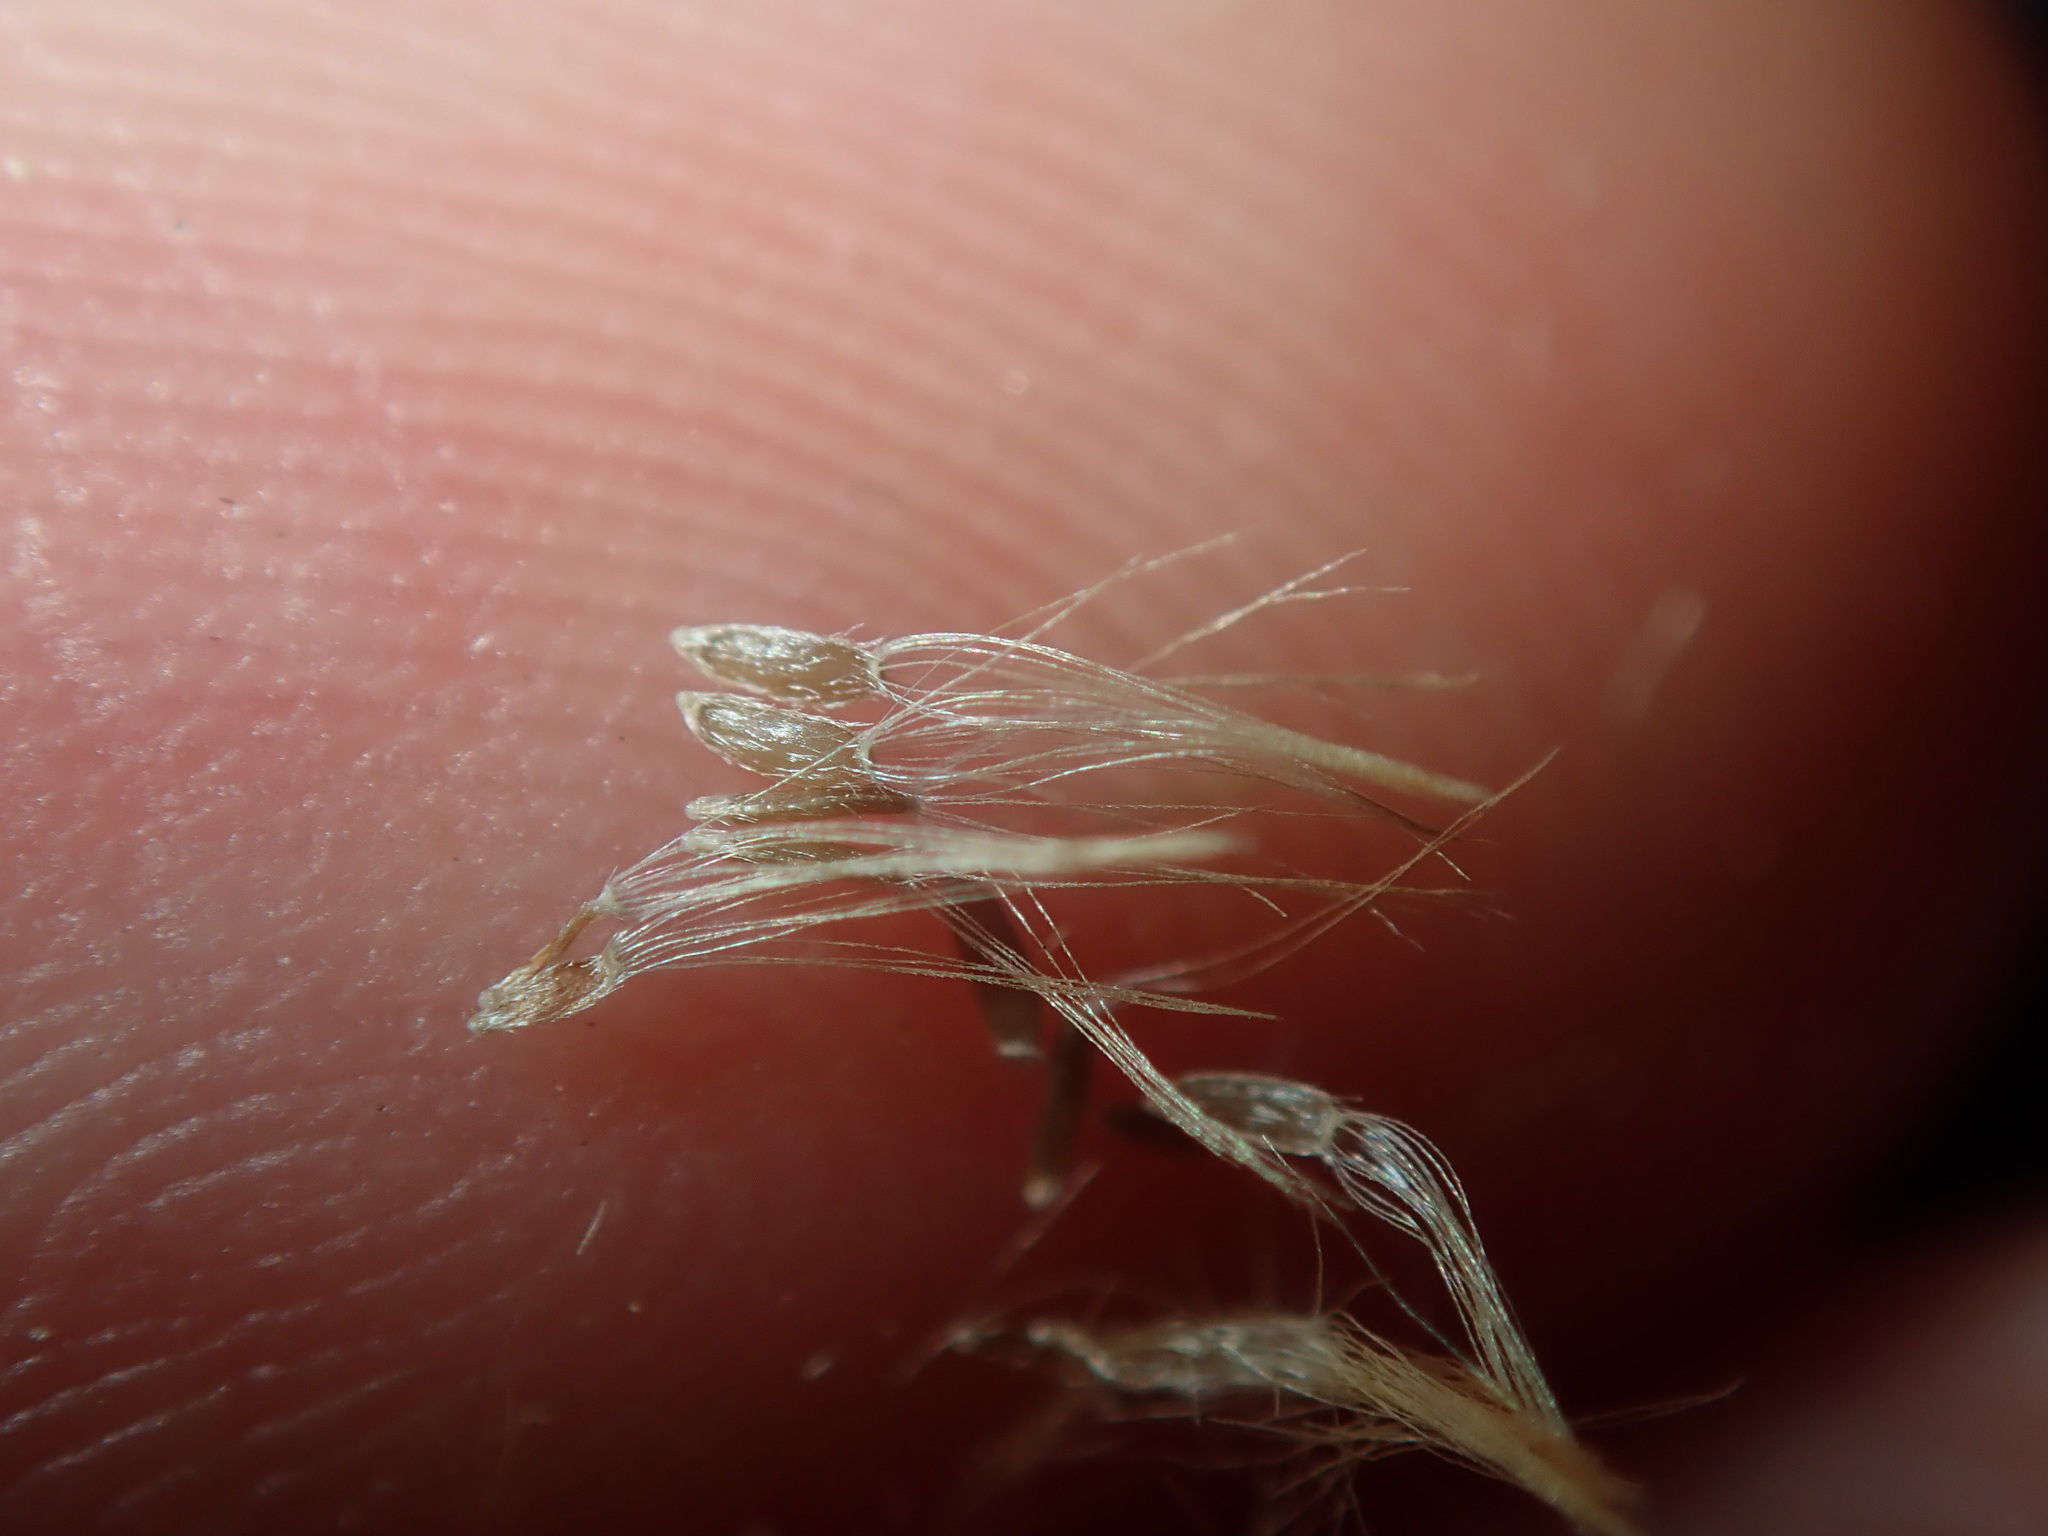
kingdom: Plantae
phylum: Tracheophyta
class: Magnoliopsida
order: Asterales
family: Asteraceae
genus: Erigeron
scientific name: Erigeron sumatrensis
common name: Daisy
